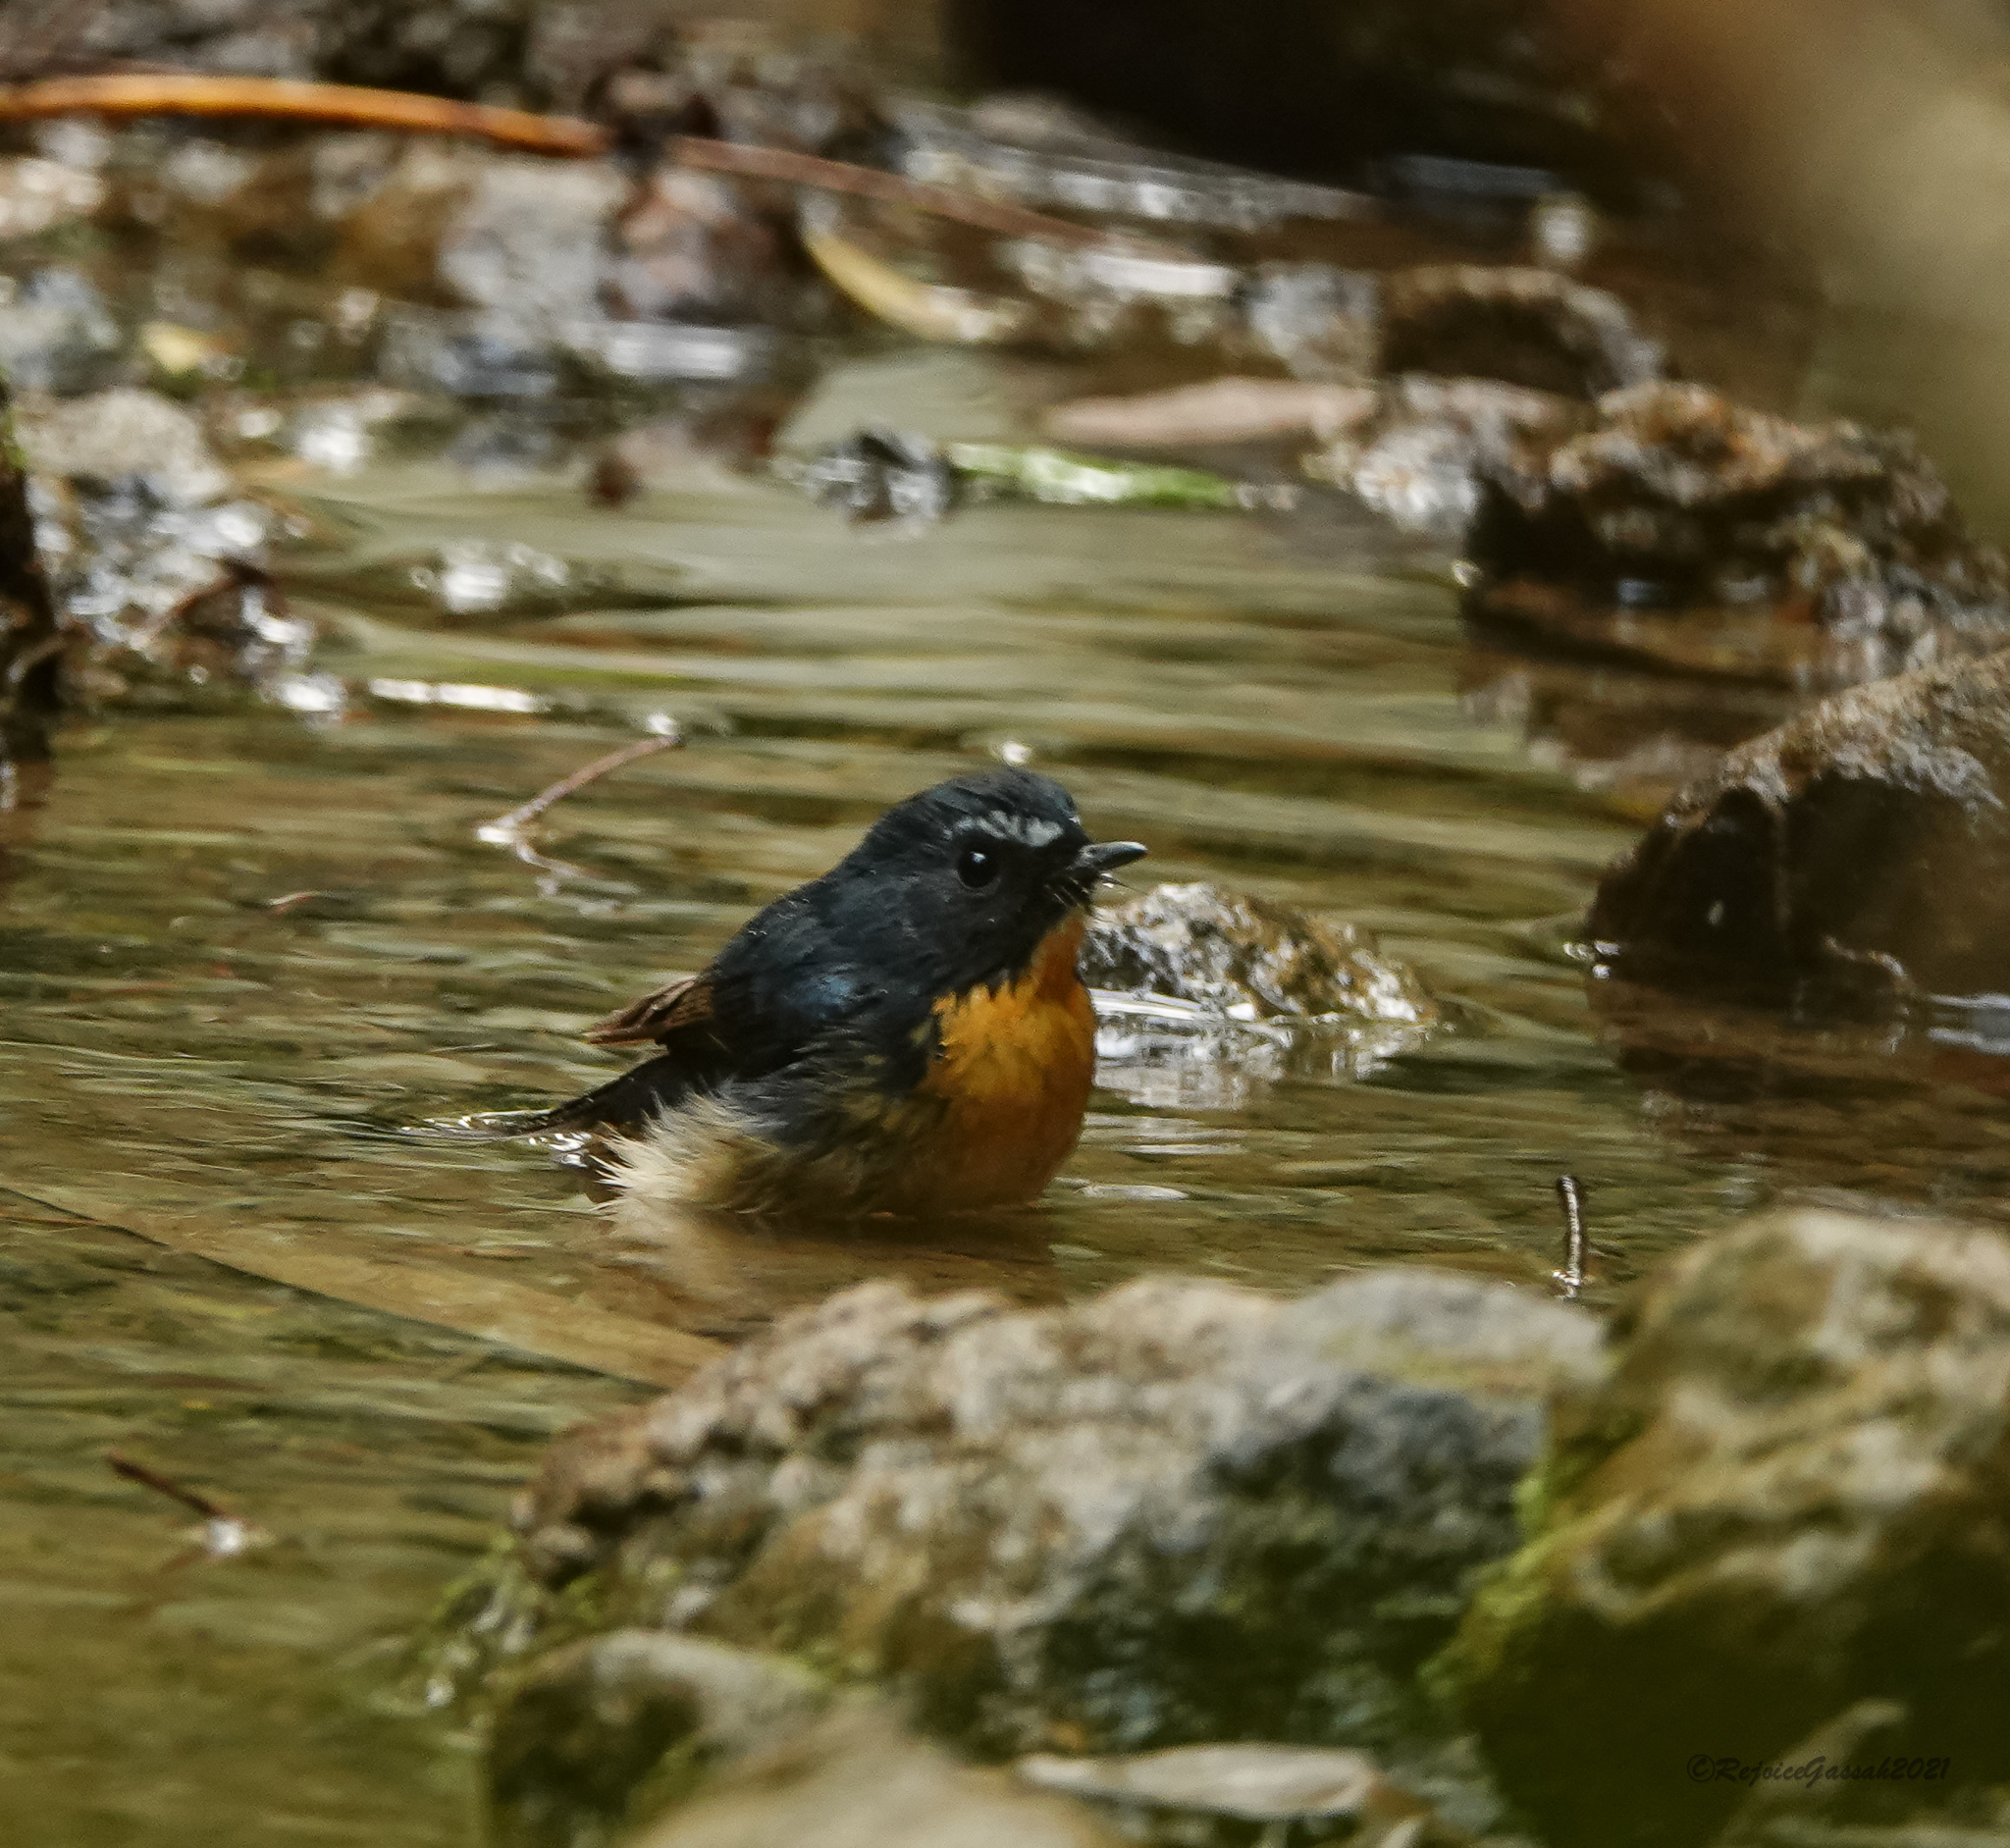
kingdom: Animalia
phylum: Chordata
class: Aves
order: Passeriformes
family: Muscicapidae
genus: Ficedula
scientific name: Ficedula hyperythra
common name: Snowy-browed flycatcher
